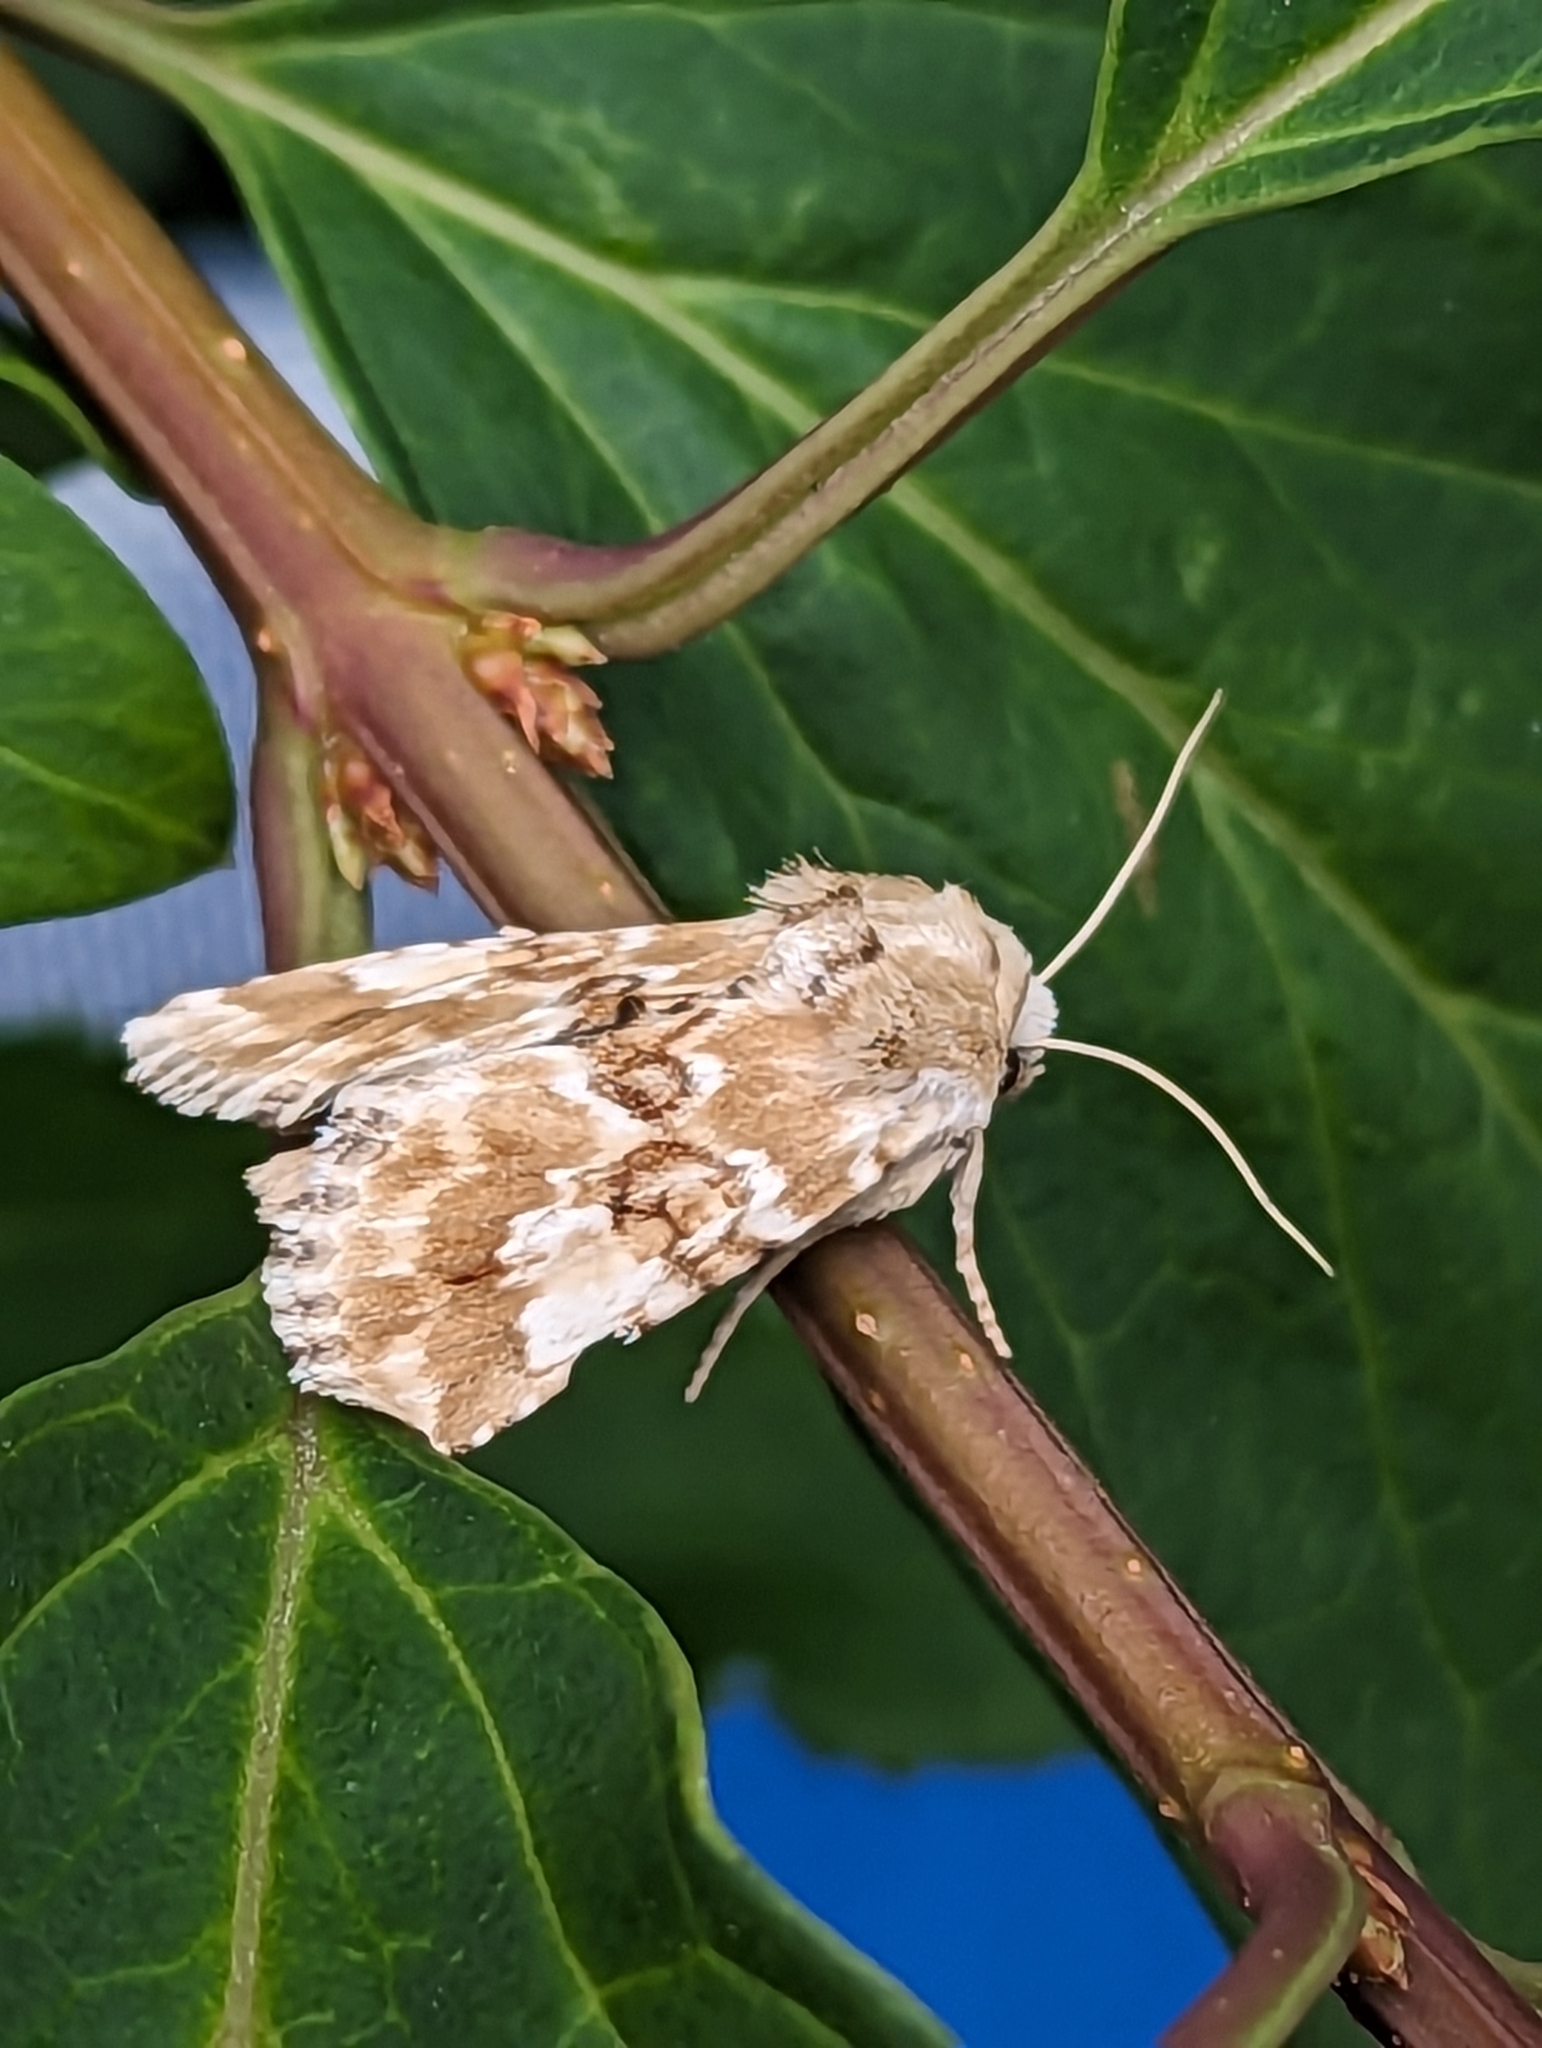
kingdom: Animalia
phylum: Arthropoda
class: Insecta
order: Lepidoptera
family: Noctuidae
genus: Eremobia
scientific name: Eremobia ochroleuca
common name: Dusky sallow
